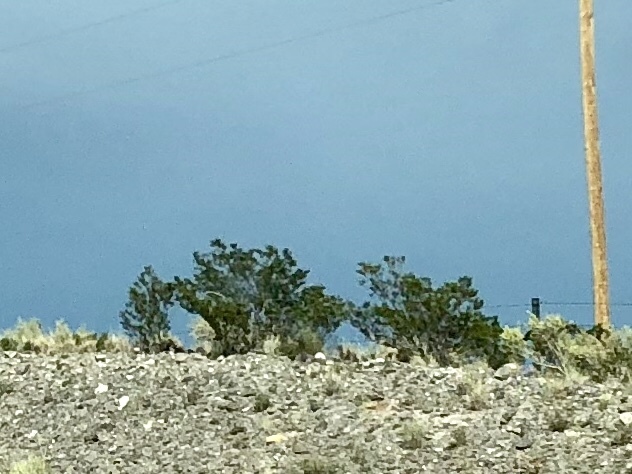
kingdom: Plantae
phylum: Tracheophyta
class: Magnoliopsida
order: Zygophyllales
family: Zygophyllaceae
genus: Larrea
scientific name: Larrea tridentata
